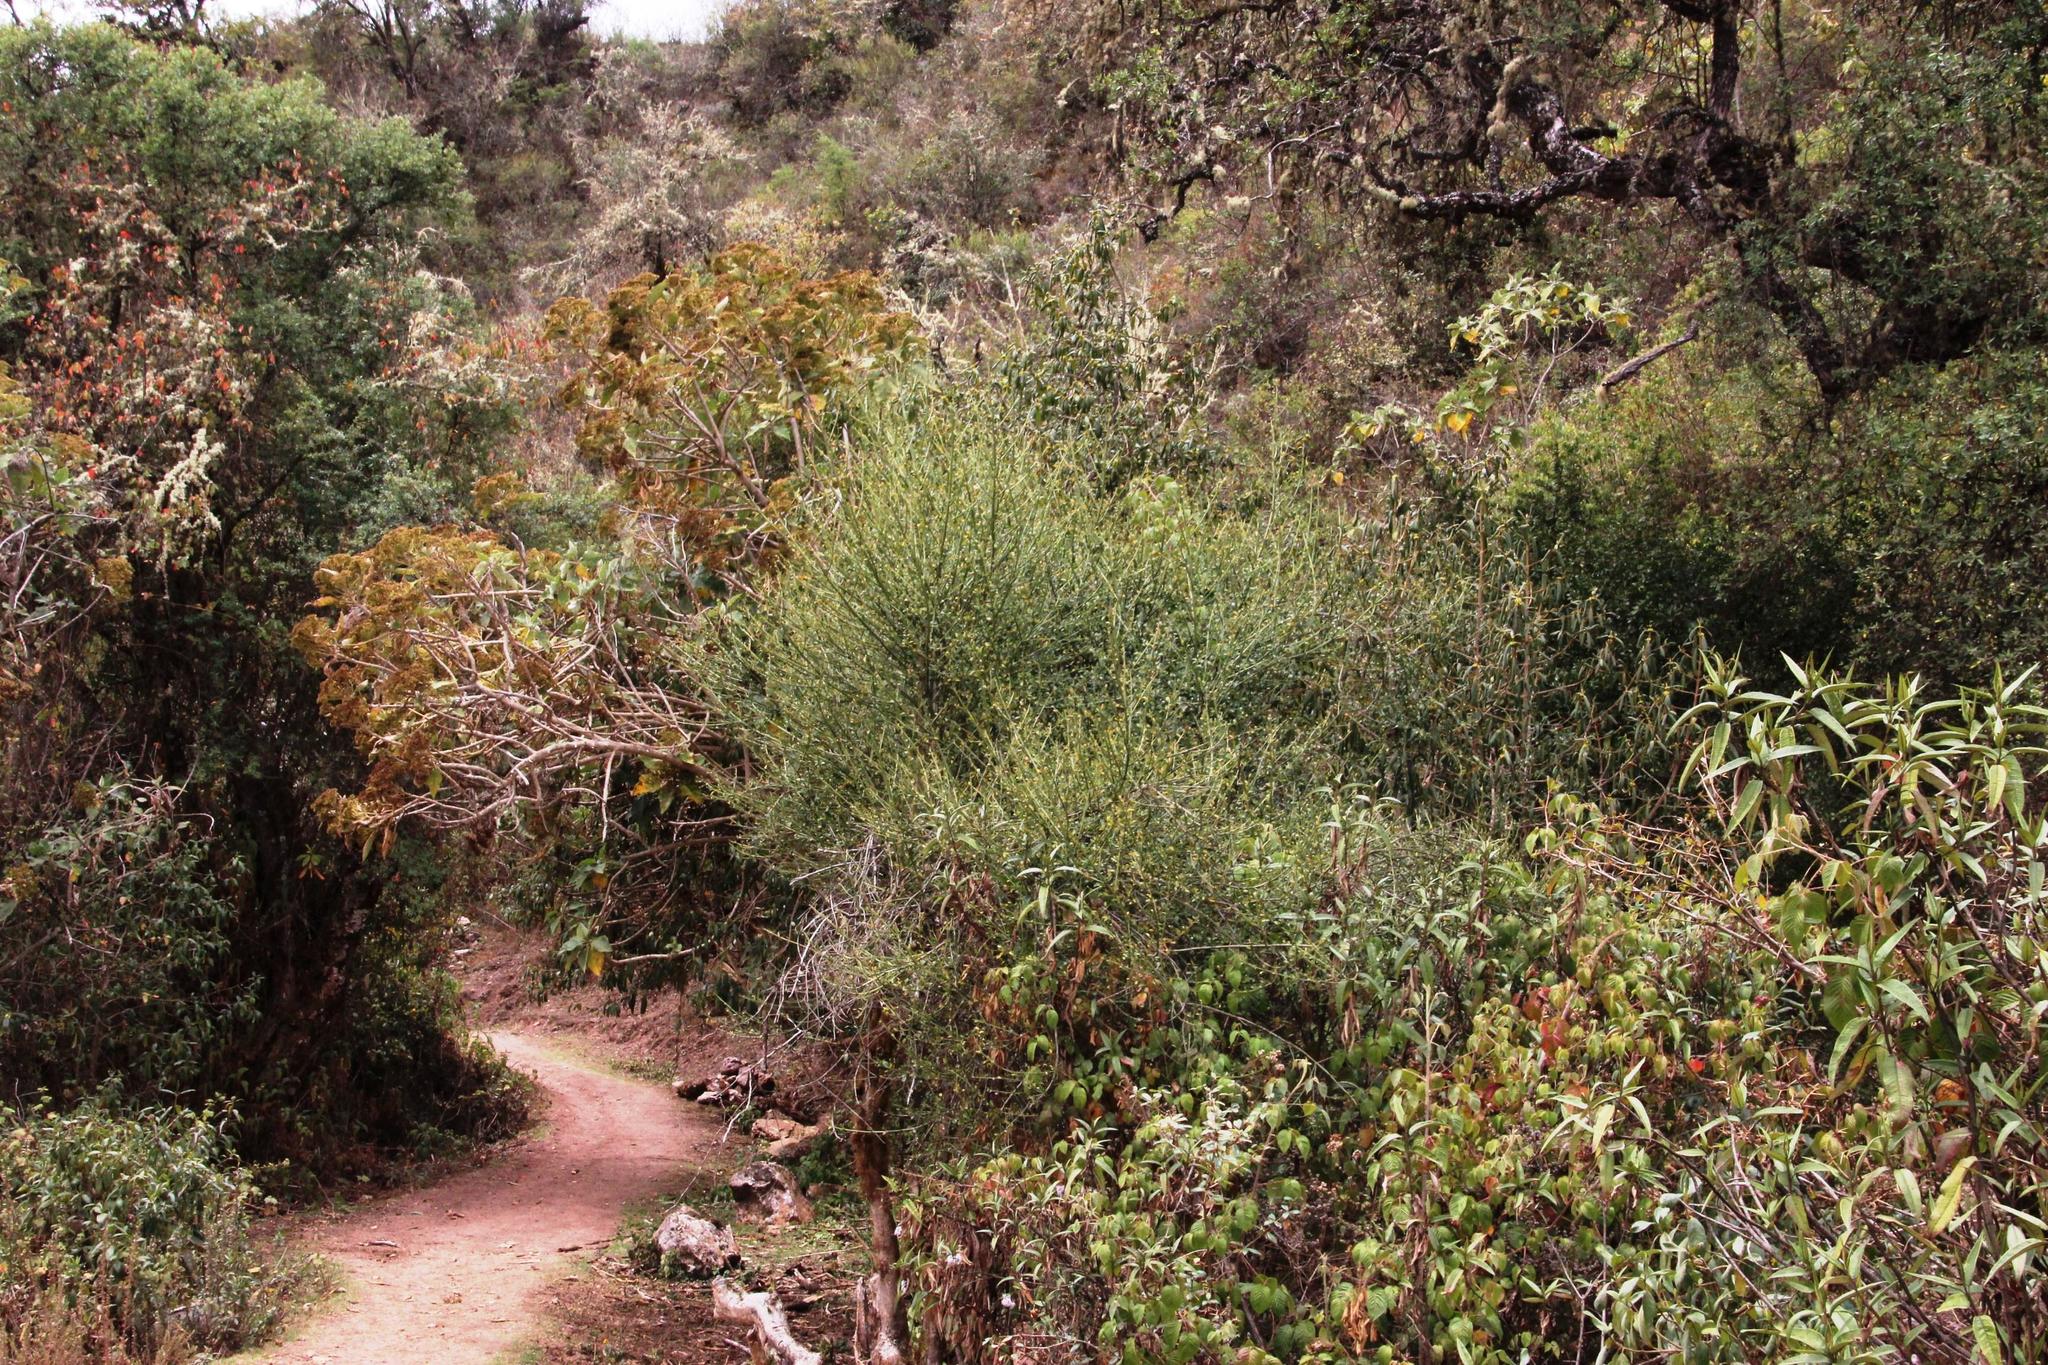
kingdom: Plantae
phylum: Tracheophyta
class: Magnoliopsida
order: Lamiales
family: Verbenaceae
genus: Citharexylum
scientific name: Citharexylum herrerae
